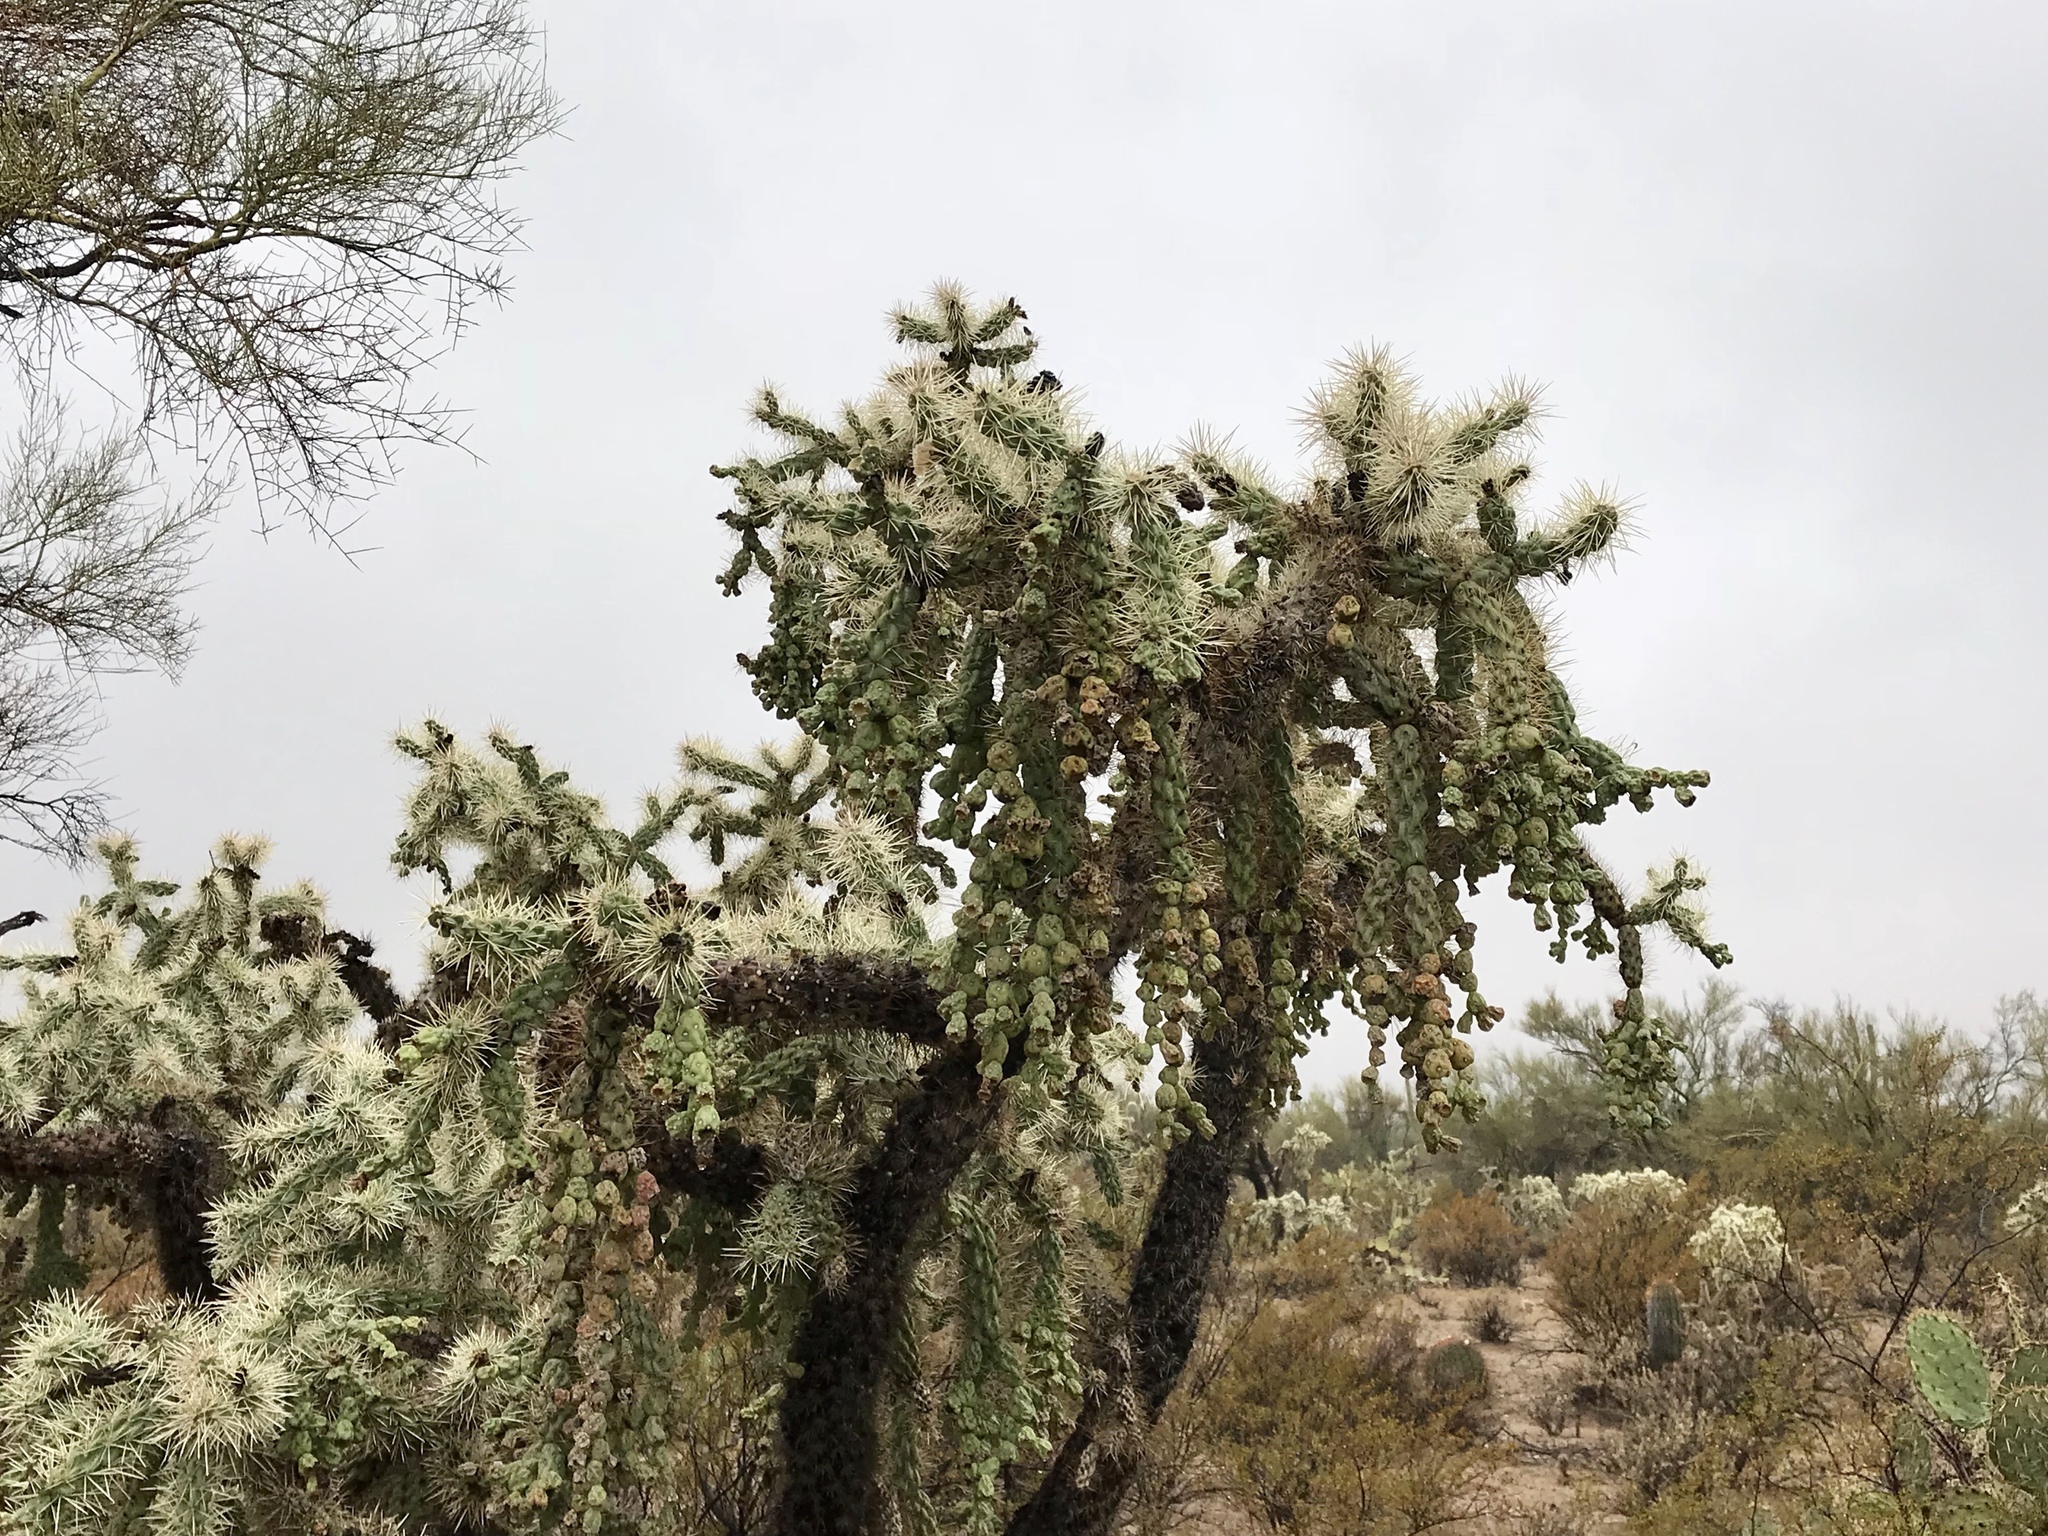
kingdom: Plantae
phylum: Tracheophyta
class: Magnoliopsida
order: Caryophyllales
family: Cactaceae
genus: Cylindropuntia
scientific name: Cylindropuntia fulgida
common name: Jumping cholla
